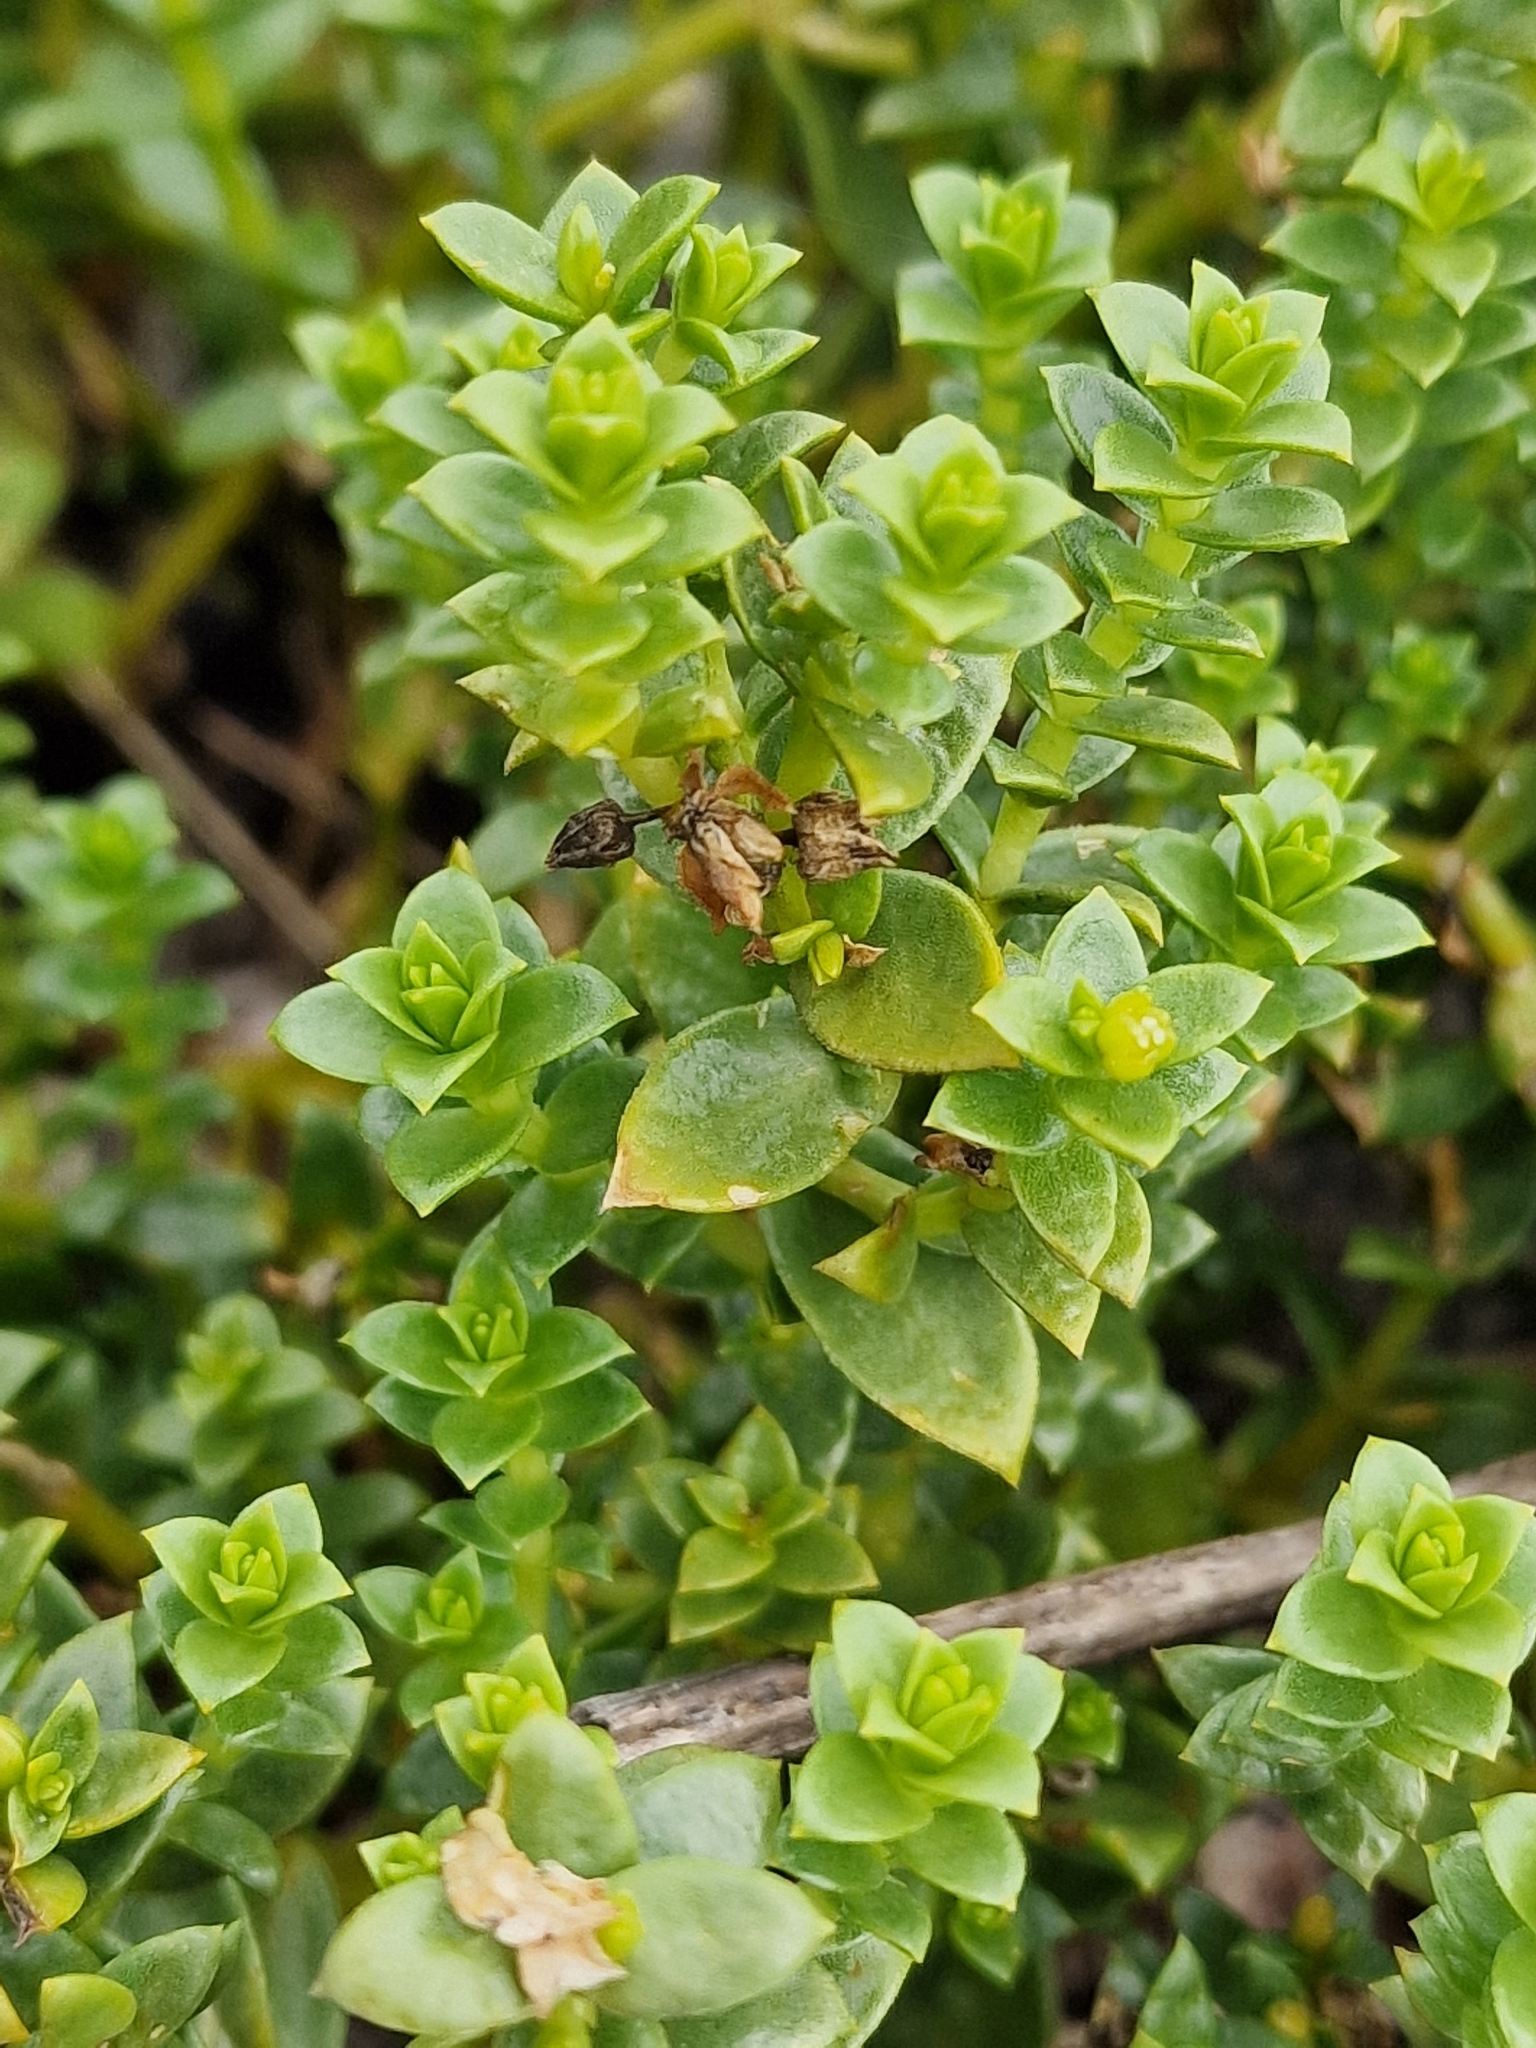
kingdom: Plantae
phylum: Tracheophyta
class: Magnoliopsida
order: Caryophyllales
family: Caryophyllaceae
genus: Honckenya
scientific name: Honckenya peploides
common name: Sea sandwort
